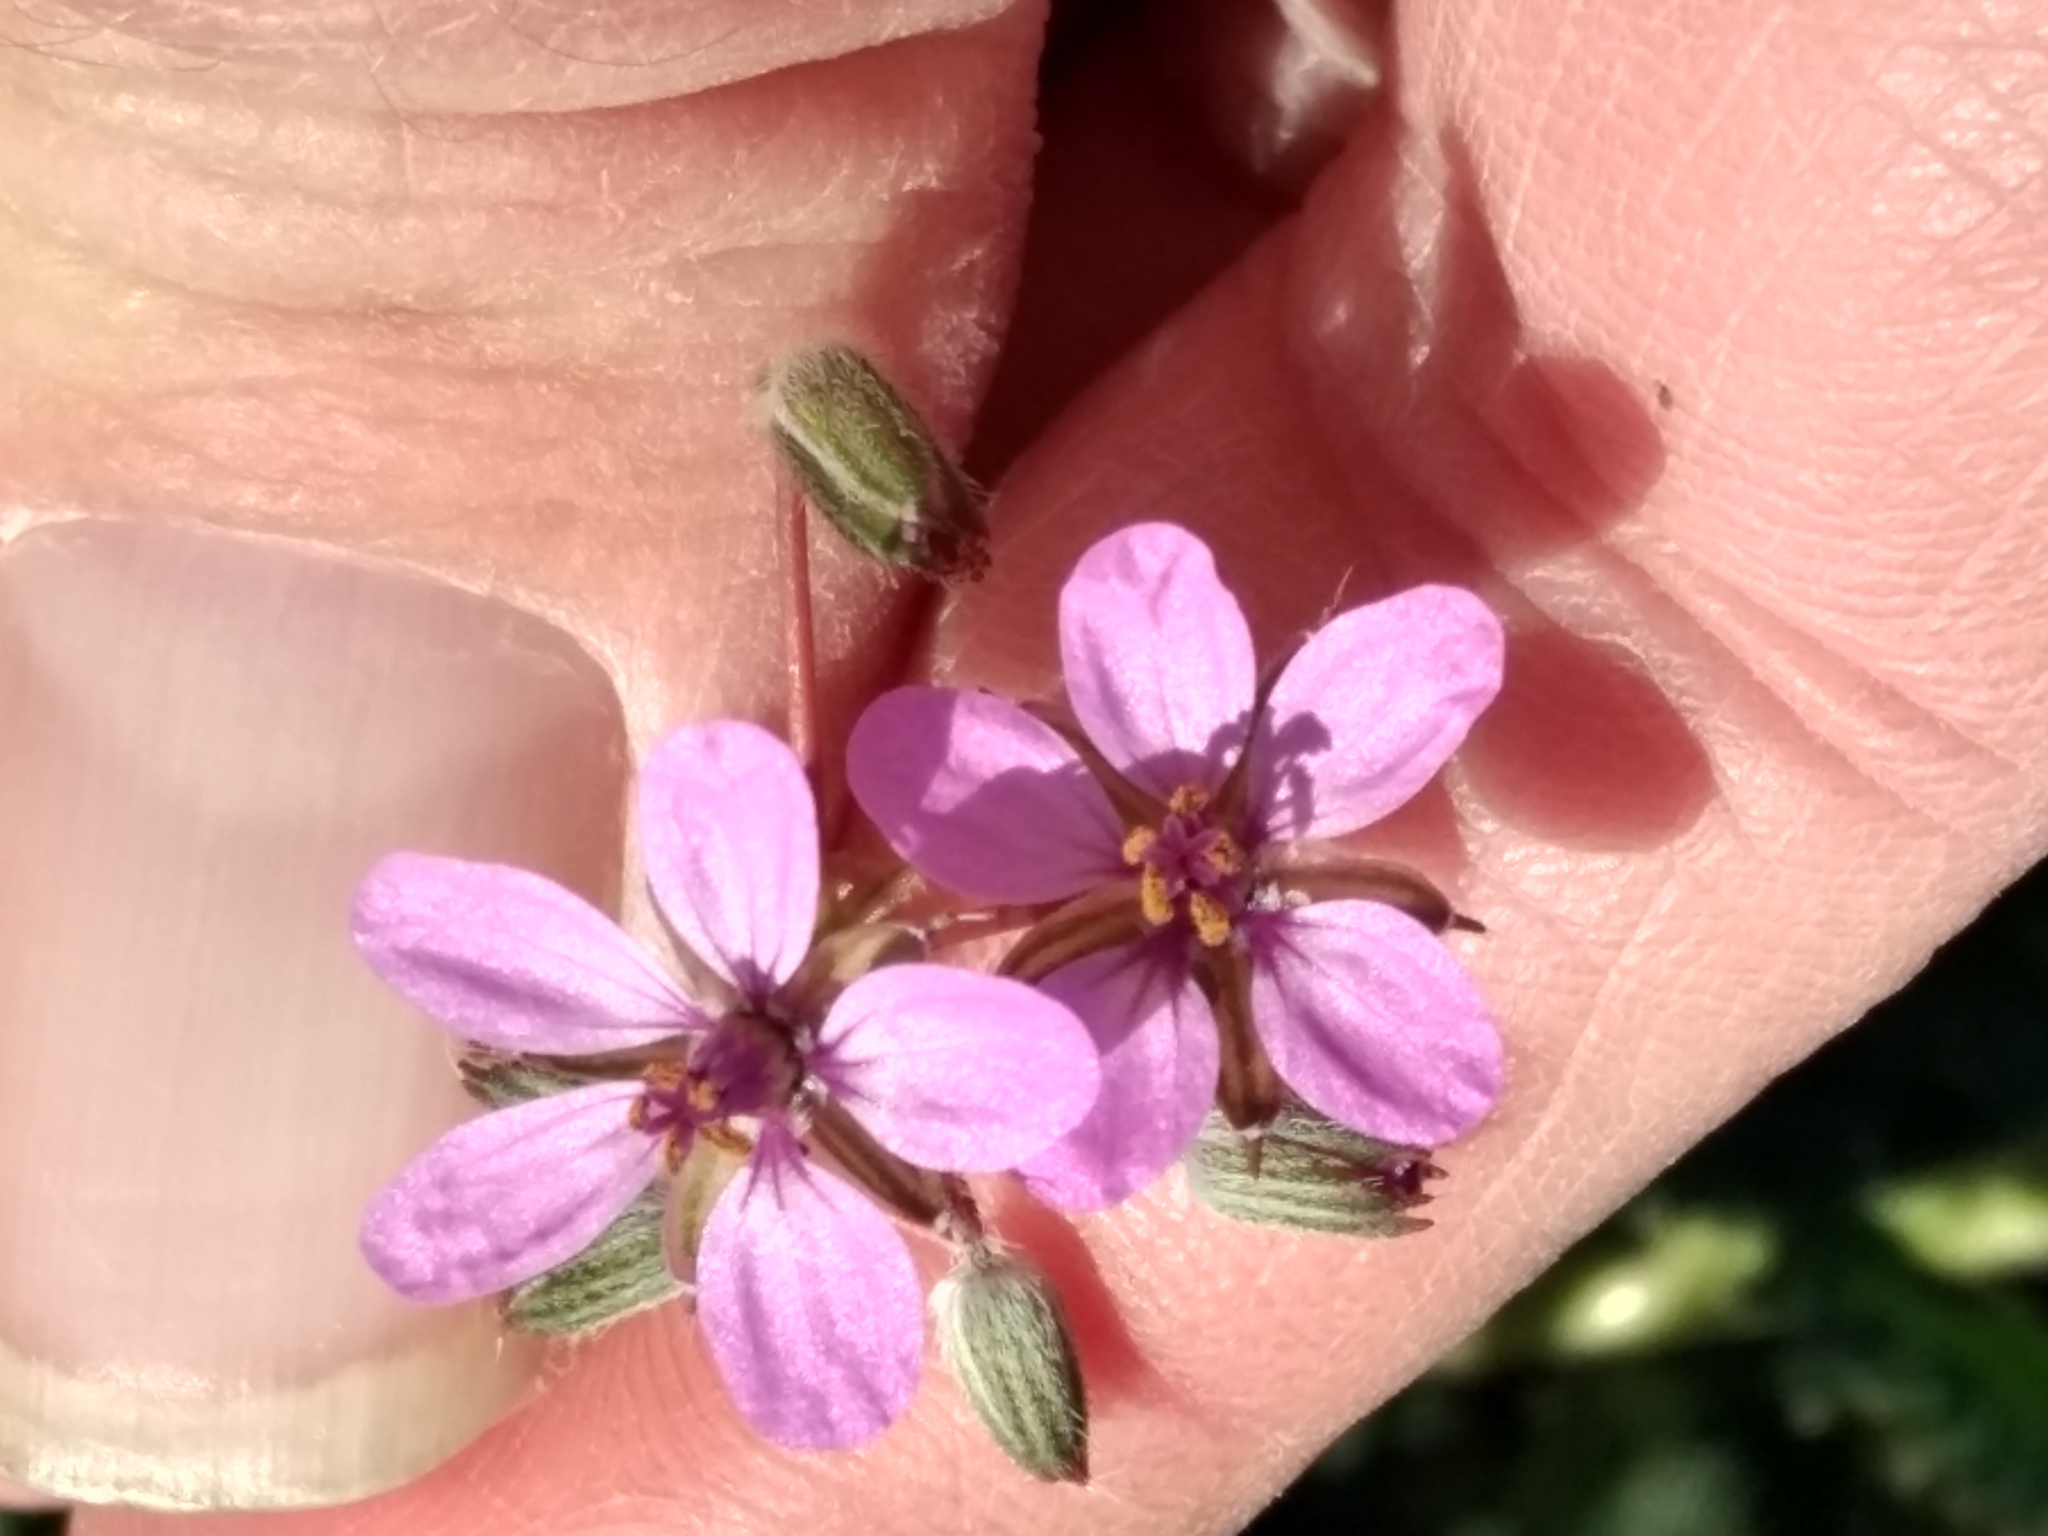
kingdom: Plantae
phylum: Tracheophyta
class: Magnoliopsida
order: Geraniales
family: Geraniaceae
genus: Erodium
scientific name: Erodium cicutarium
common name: Common stork's-bill
